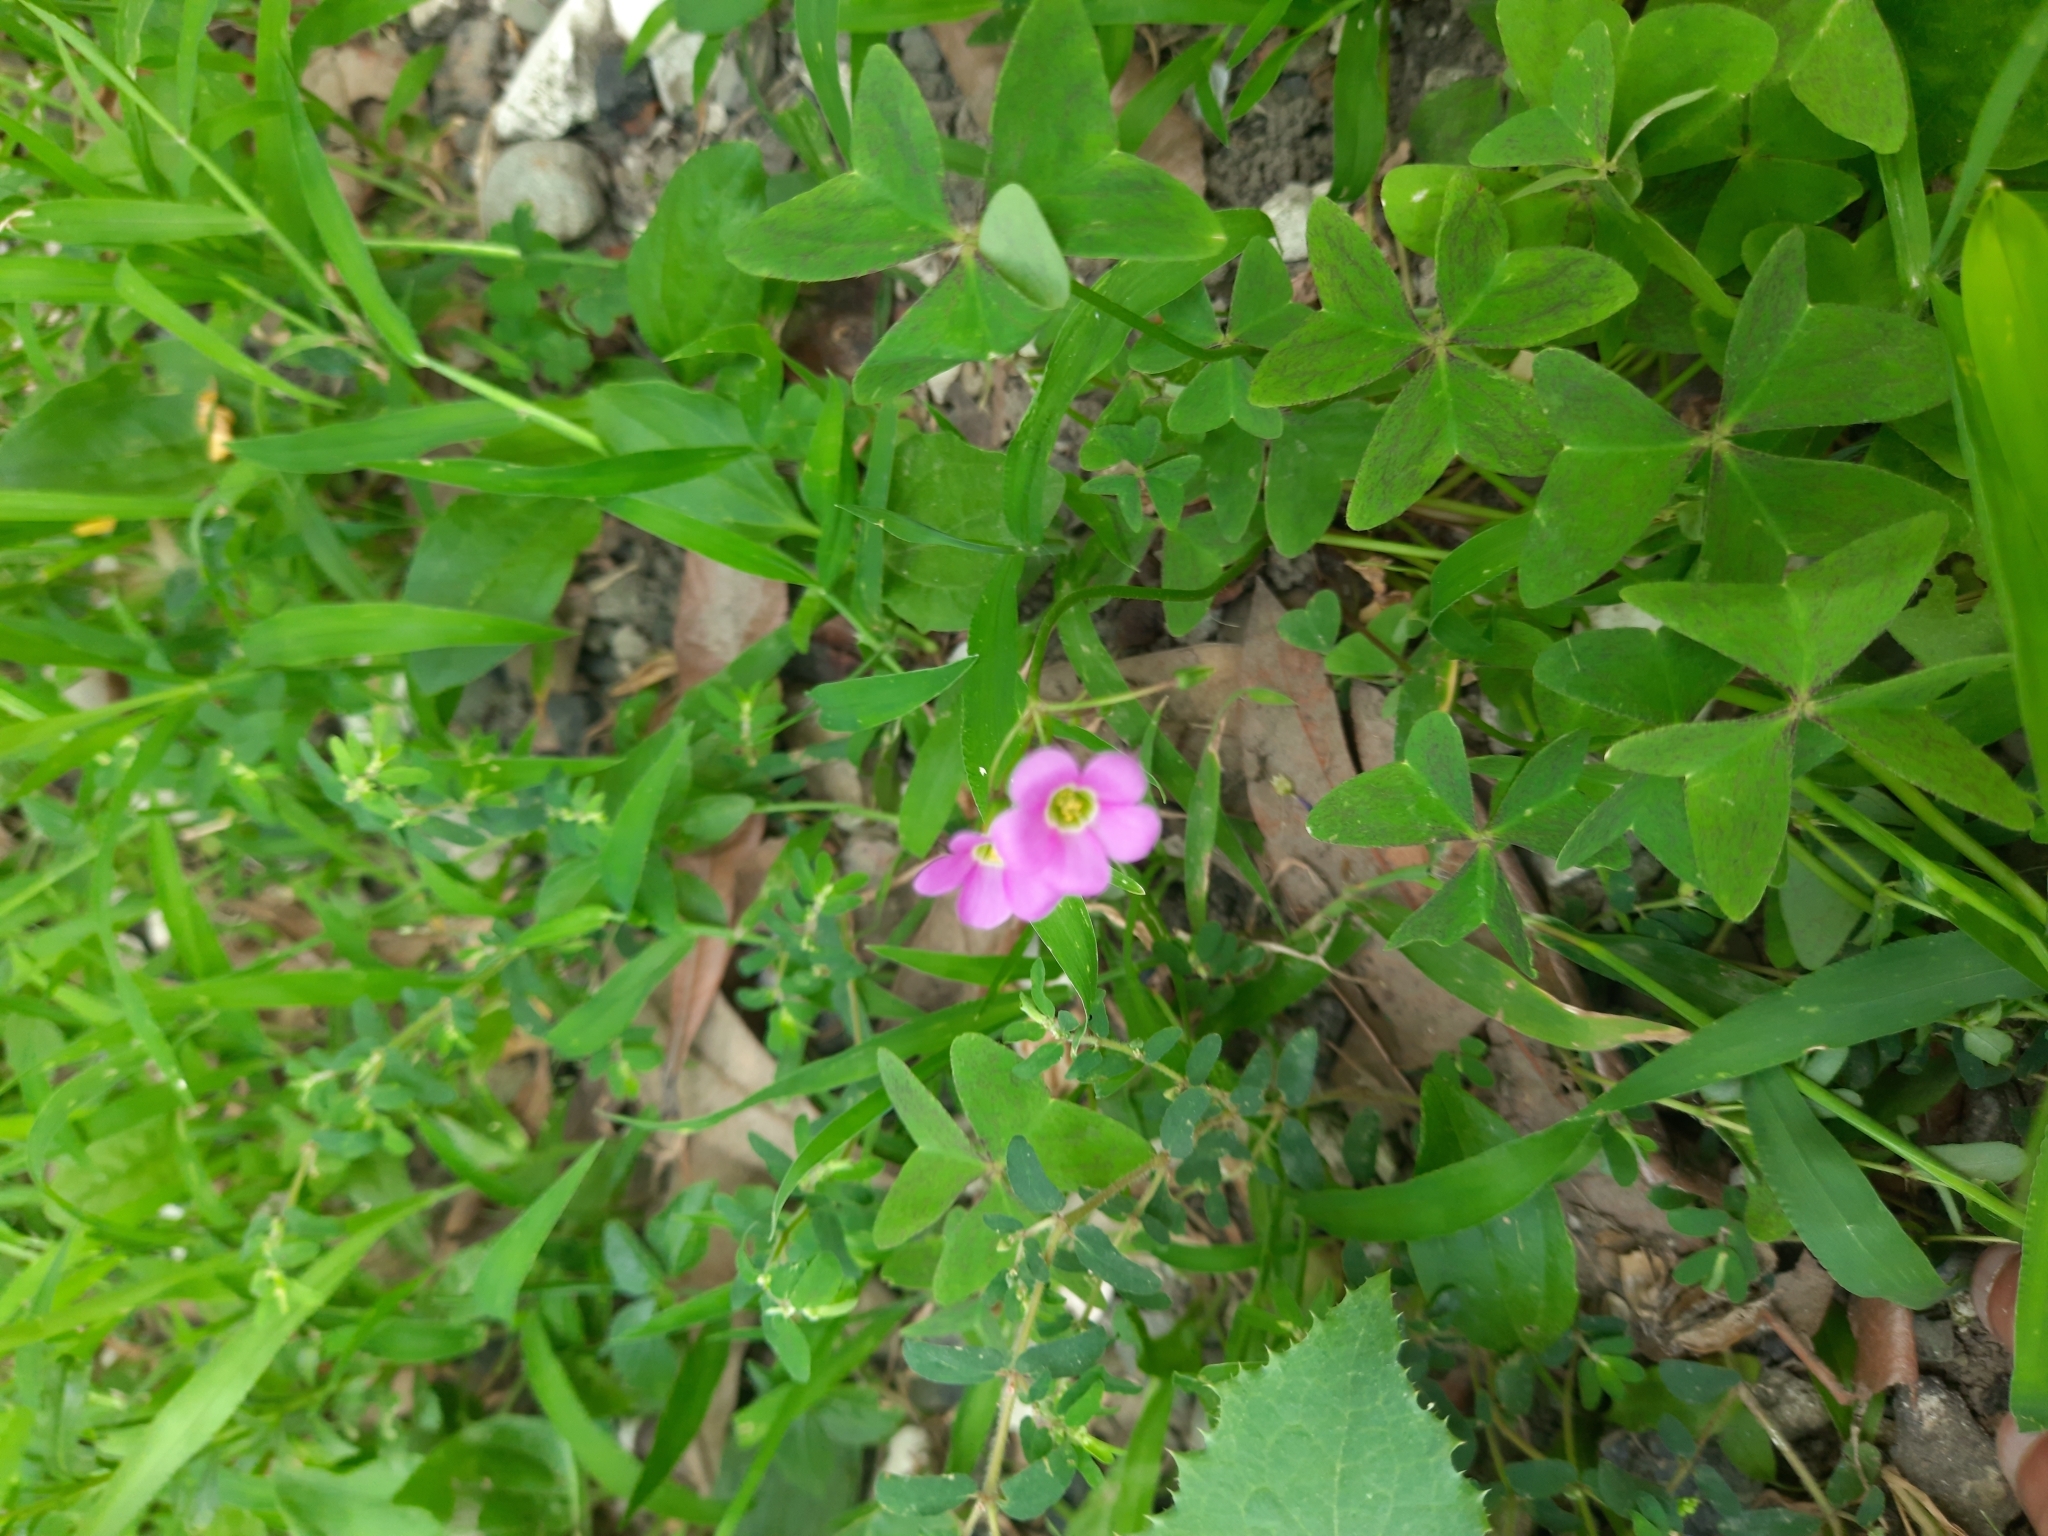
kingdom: Plantae
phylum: Tracheophyta
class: Magnoliopsida
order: Oxalidales
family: Oxalidaceae
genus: Oxalis
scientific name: Oxalis latifolia
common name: Garden pink-sorrel
